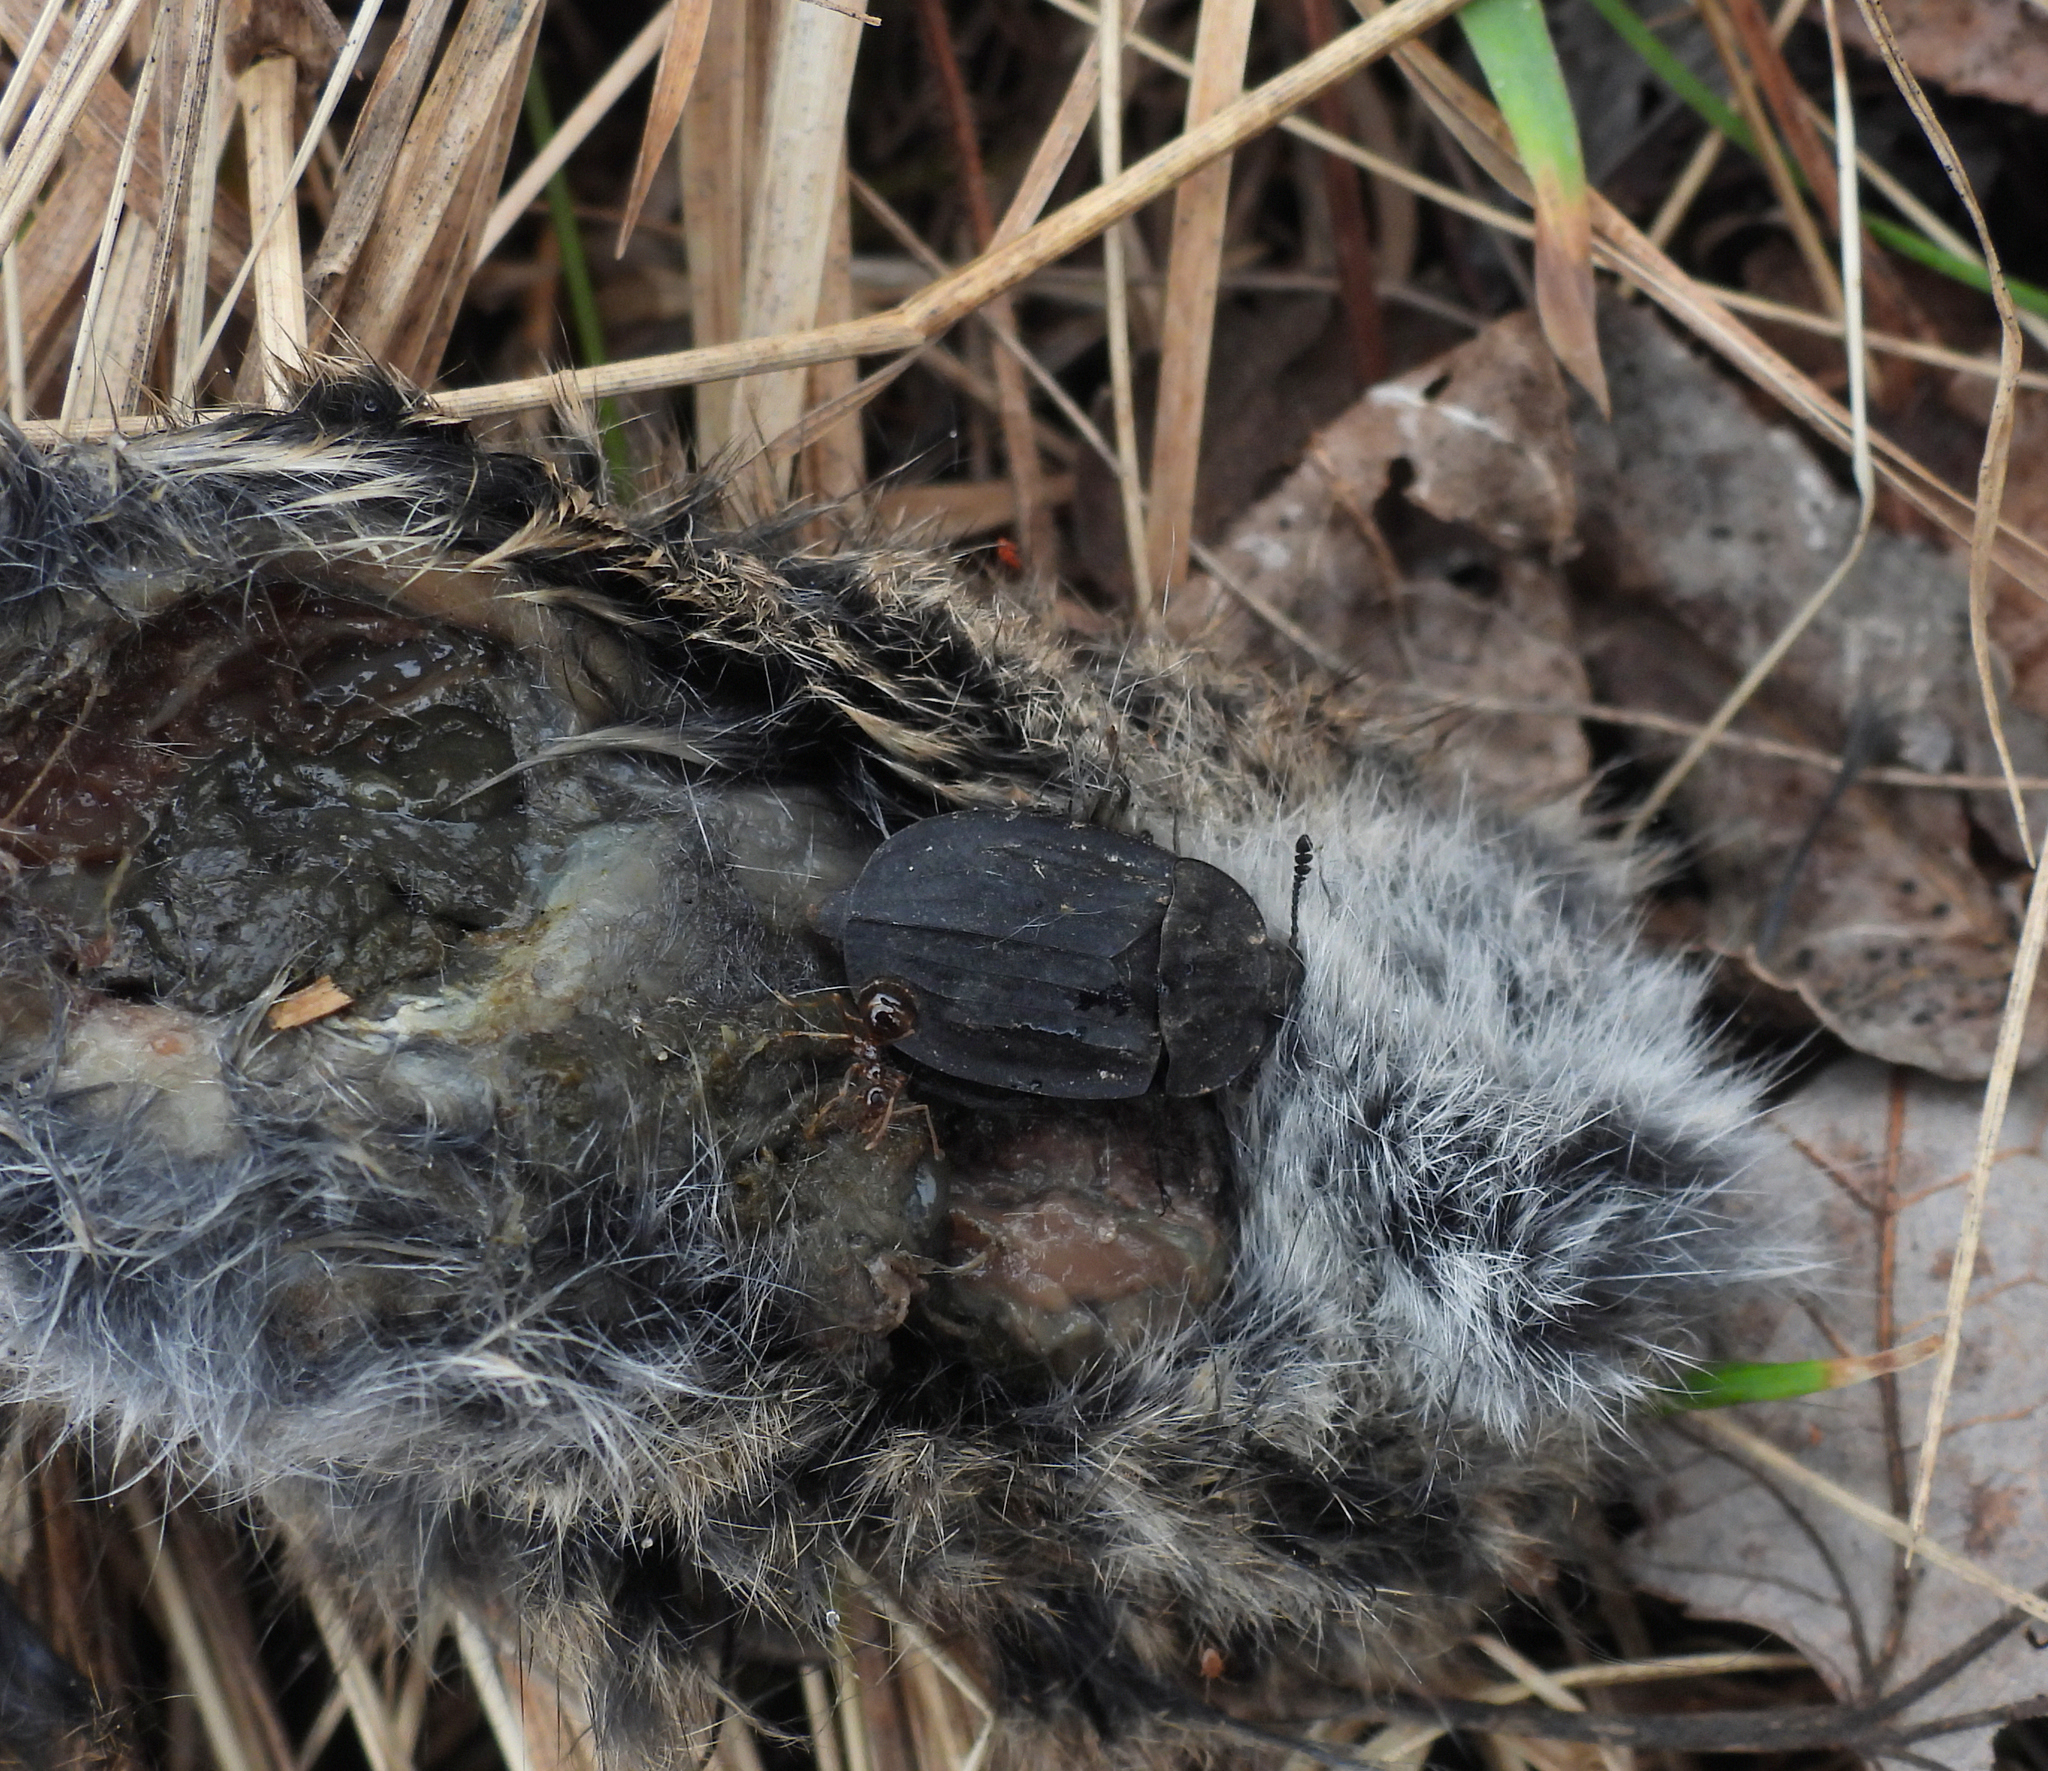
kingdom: Animalia
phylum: Arthropoda
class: Insecta
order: Coleoptera
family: Staphylinidae
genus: Oiceoptoma
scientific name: Oiceoptoma inaequale
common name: Ridged carrion beetle
